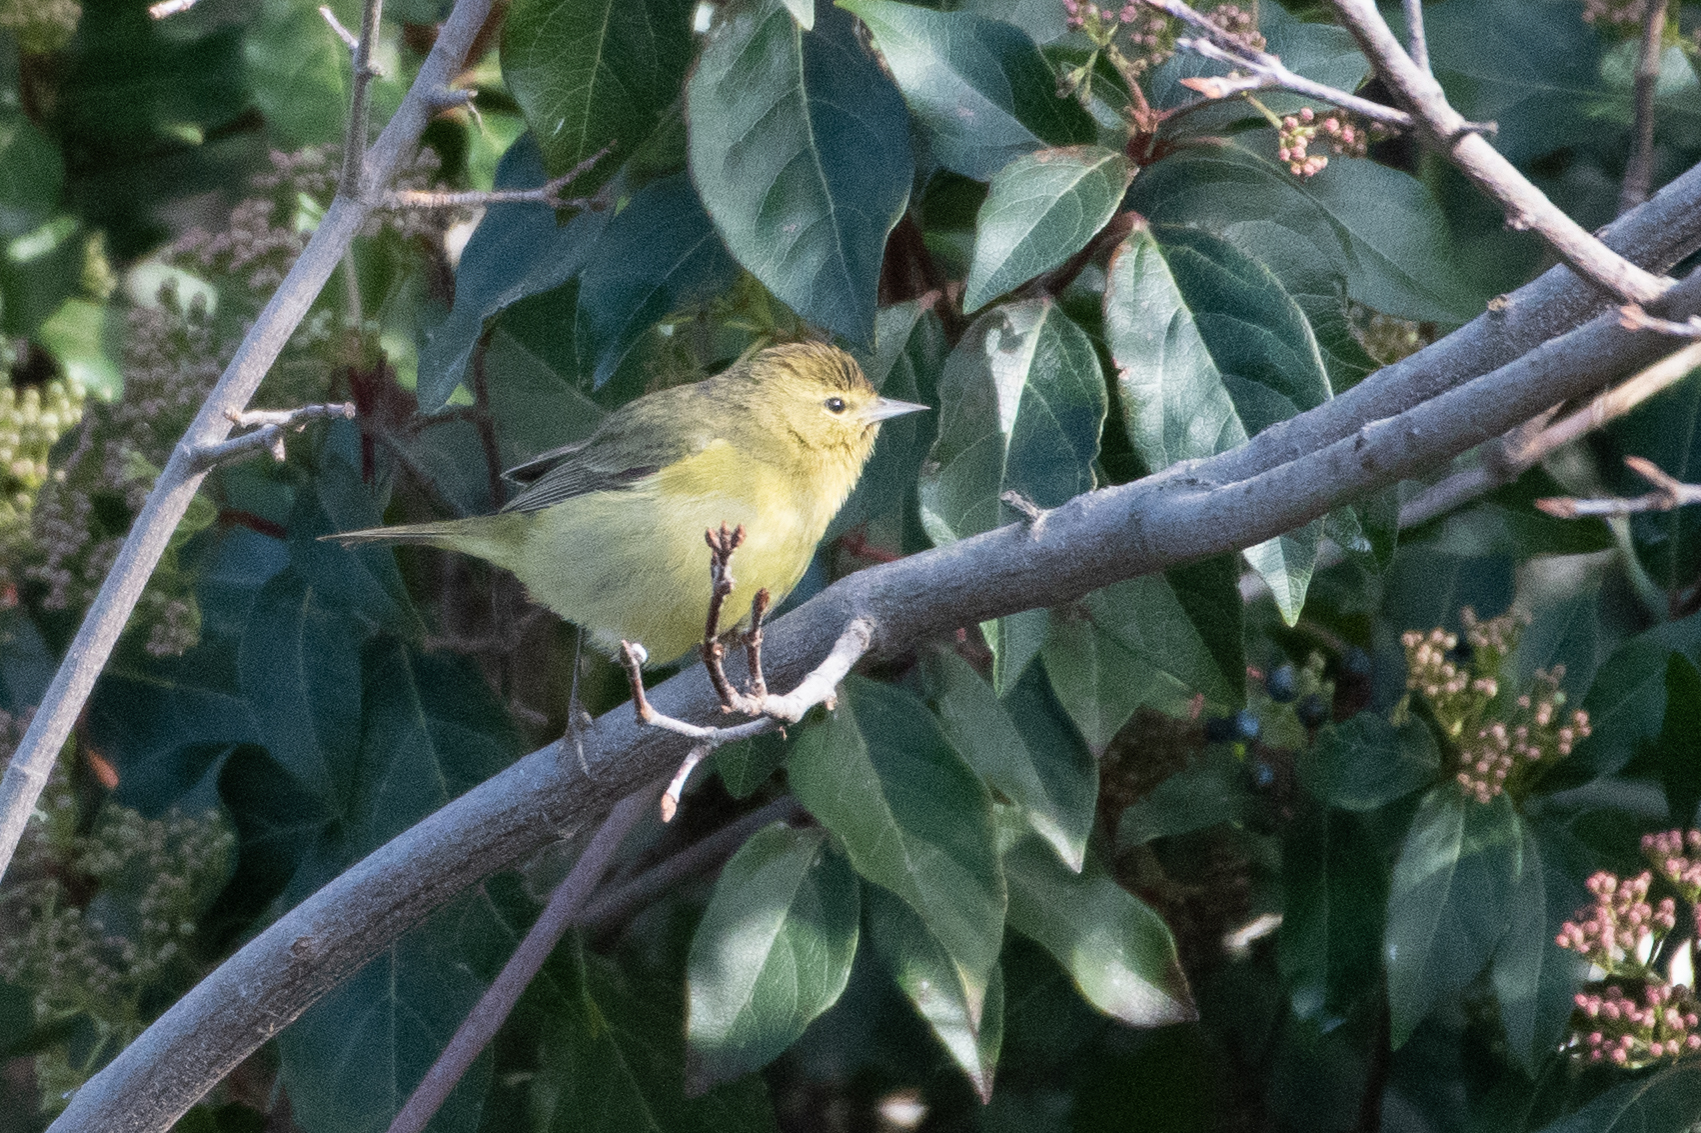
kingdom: Animalia
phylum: Chordata
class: Aves
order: Passeriformes
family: Parulidae
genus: Leiothlypis
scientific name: Leiothlypis celata
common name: Orange-crowned warbler
